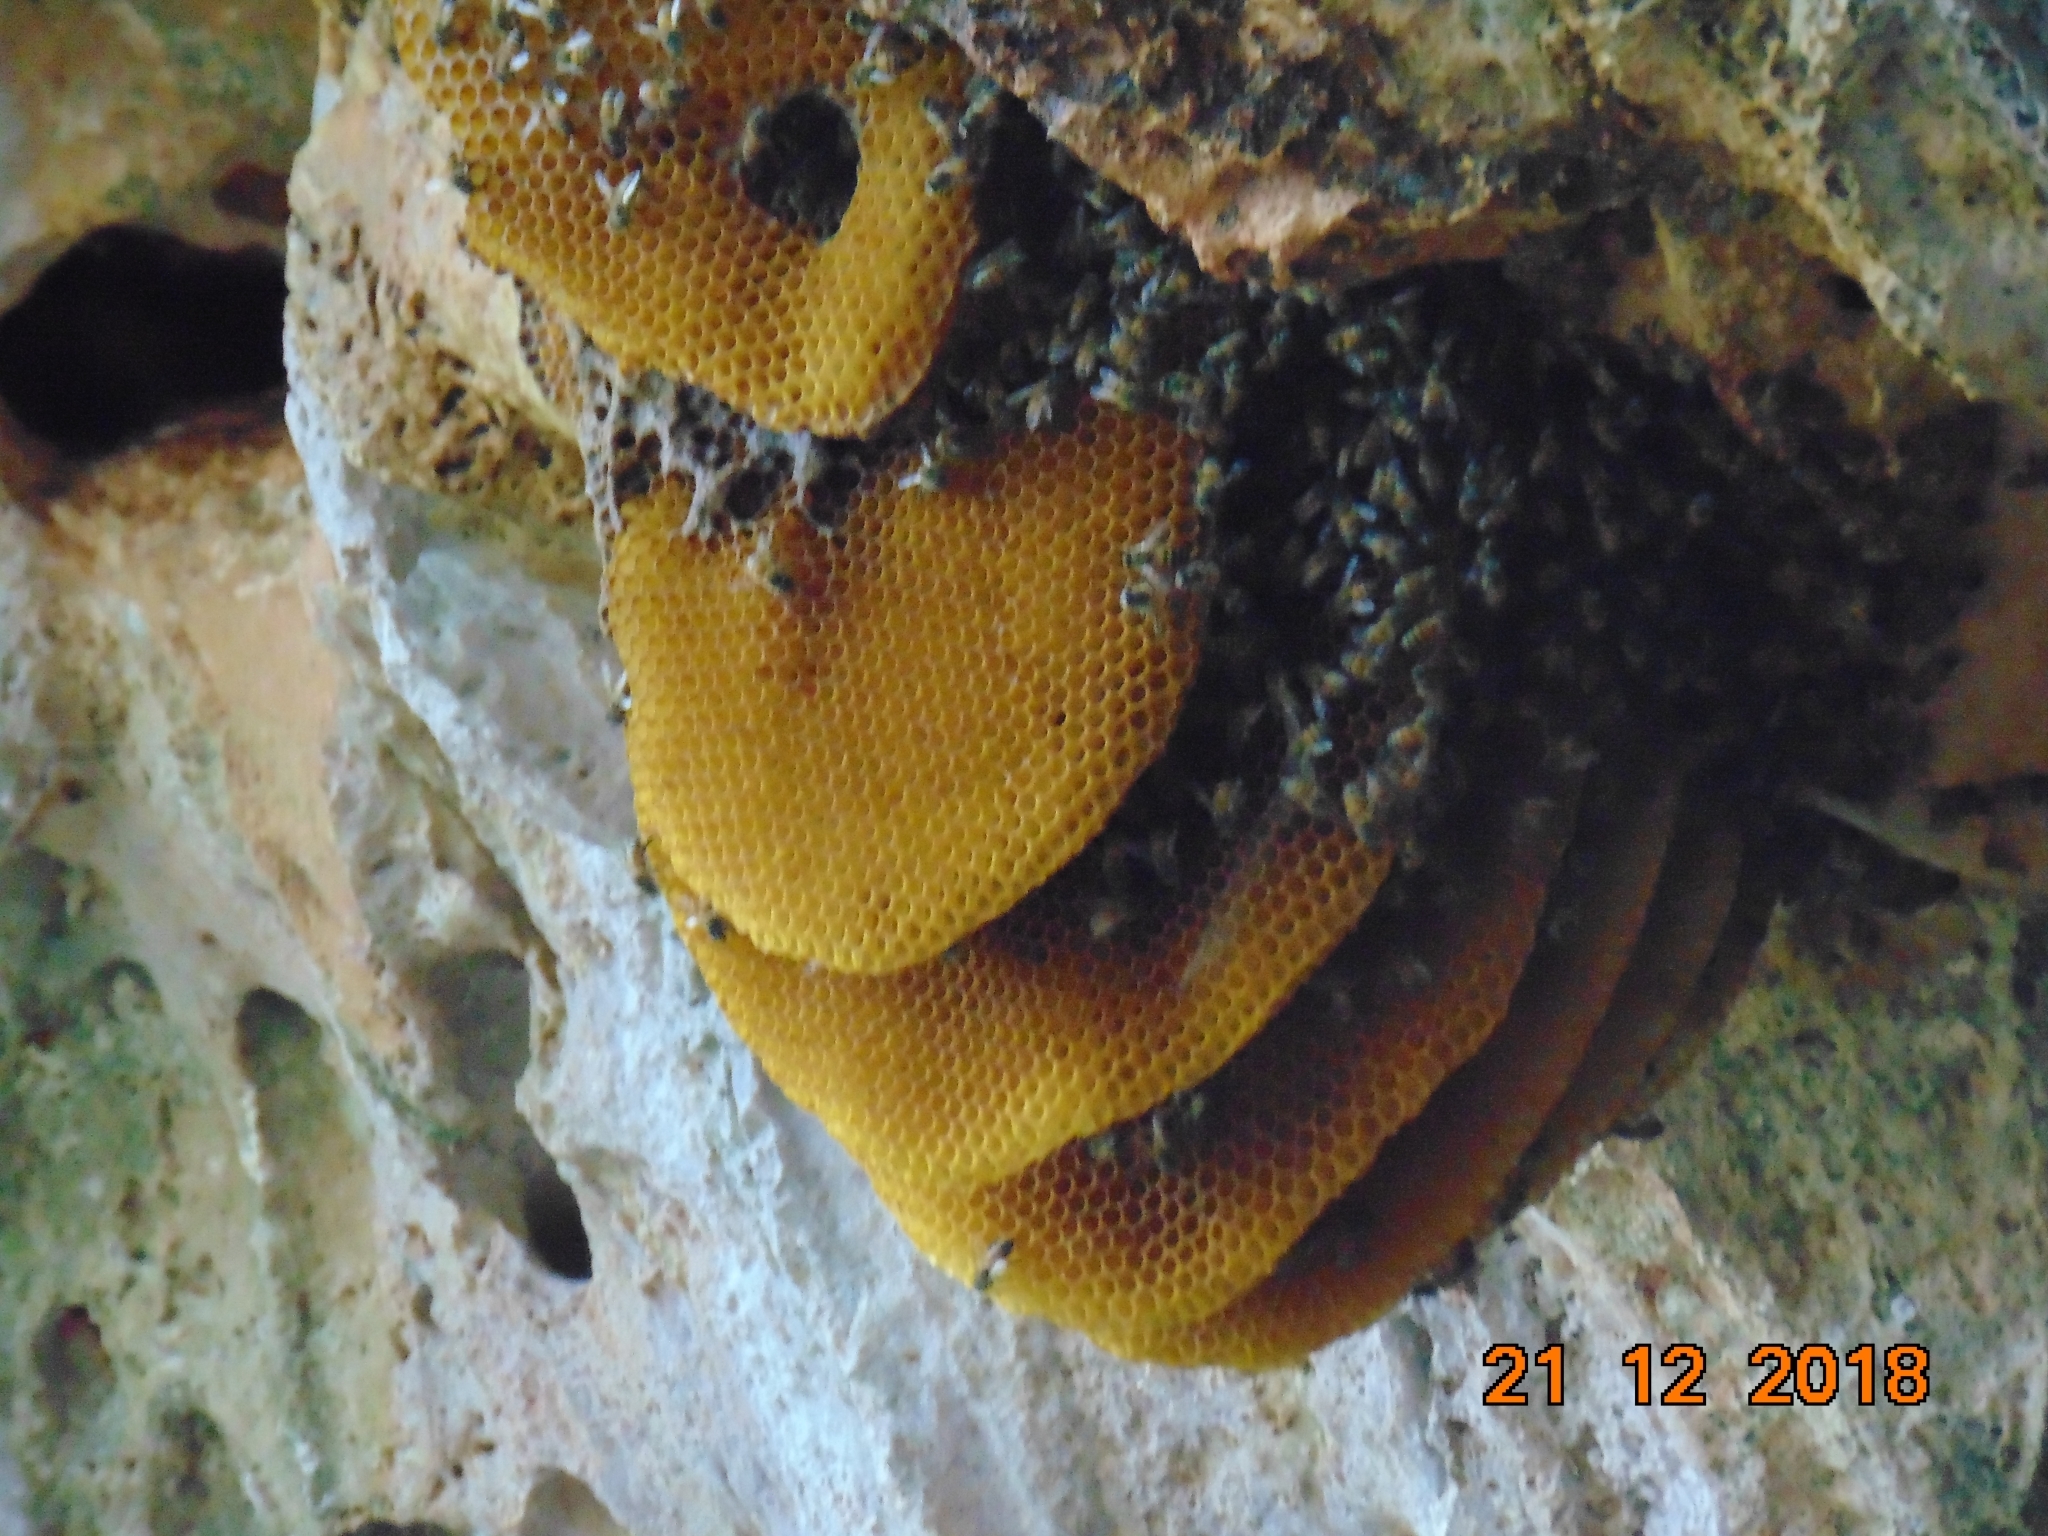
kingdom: Animalia
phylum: Arthropoda
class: Insecta
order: Hymenoptera
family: Apidae
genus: Apis
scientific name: Apis mellifera
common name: Honey bee
